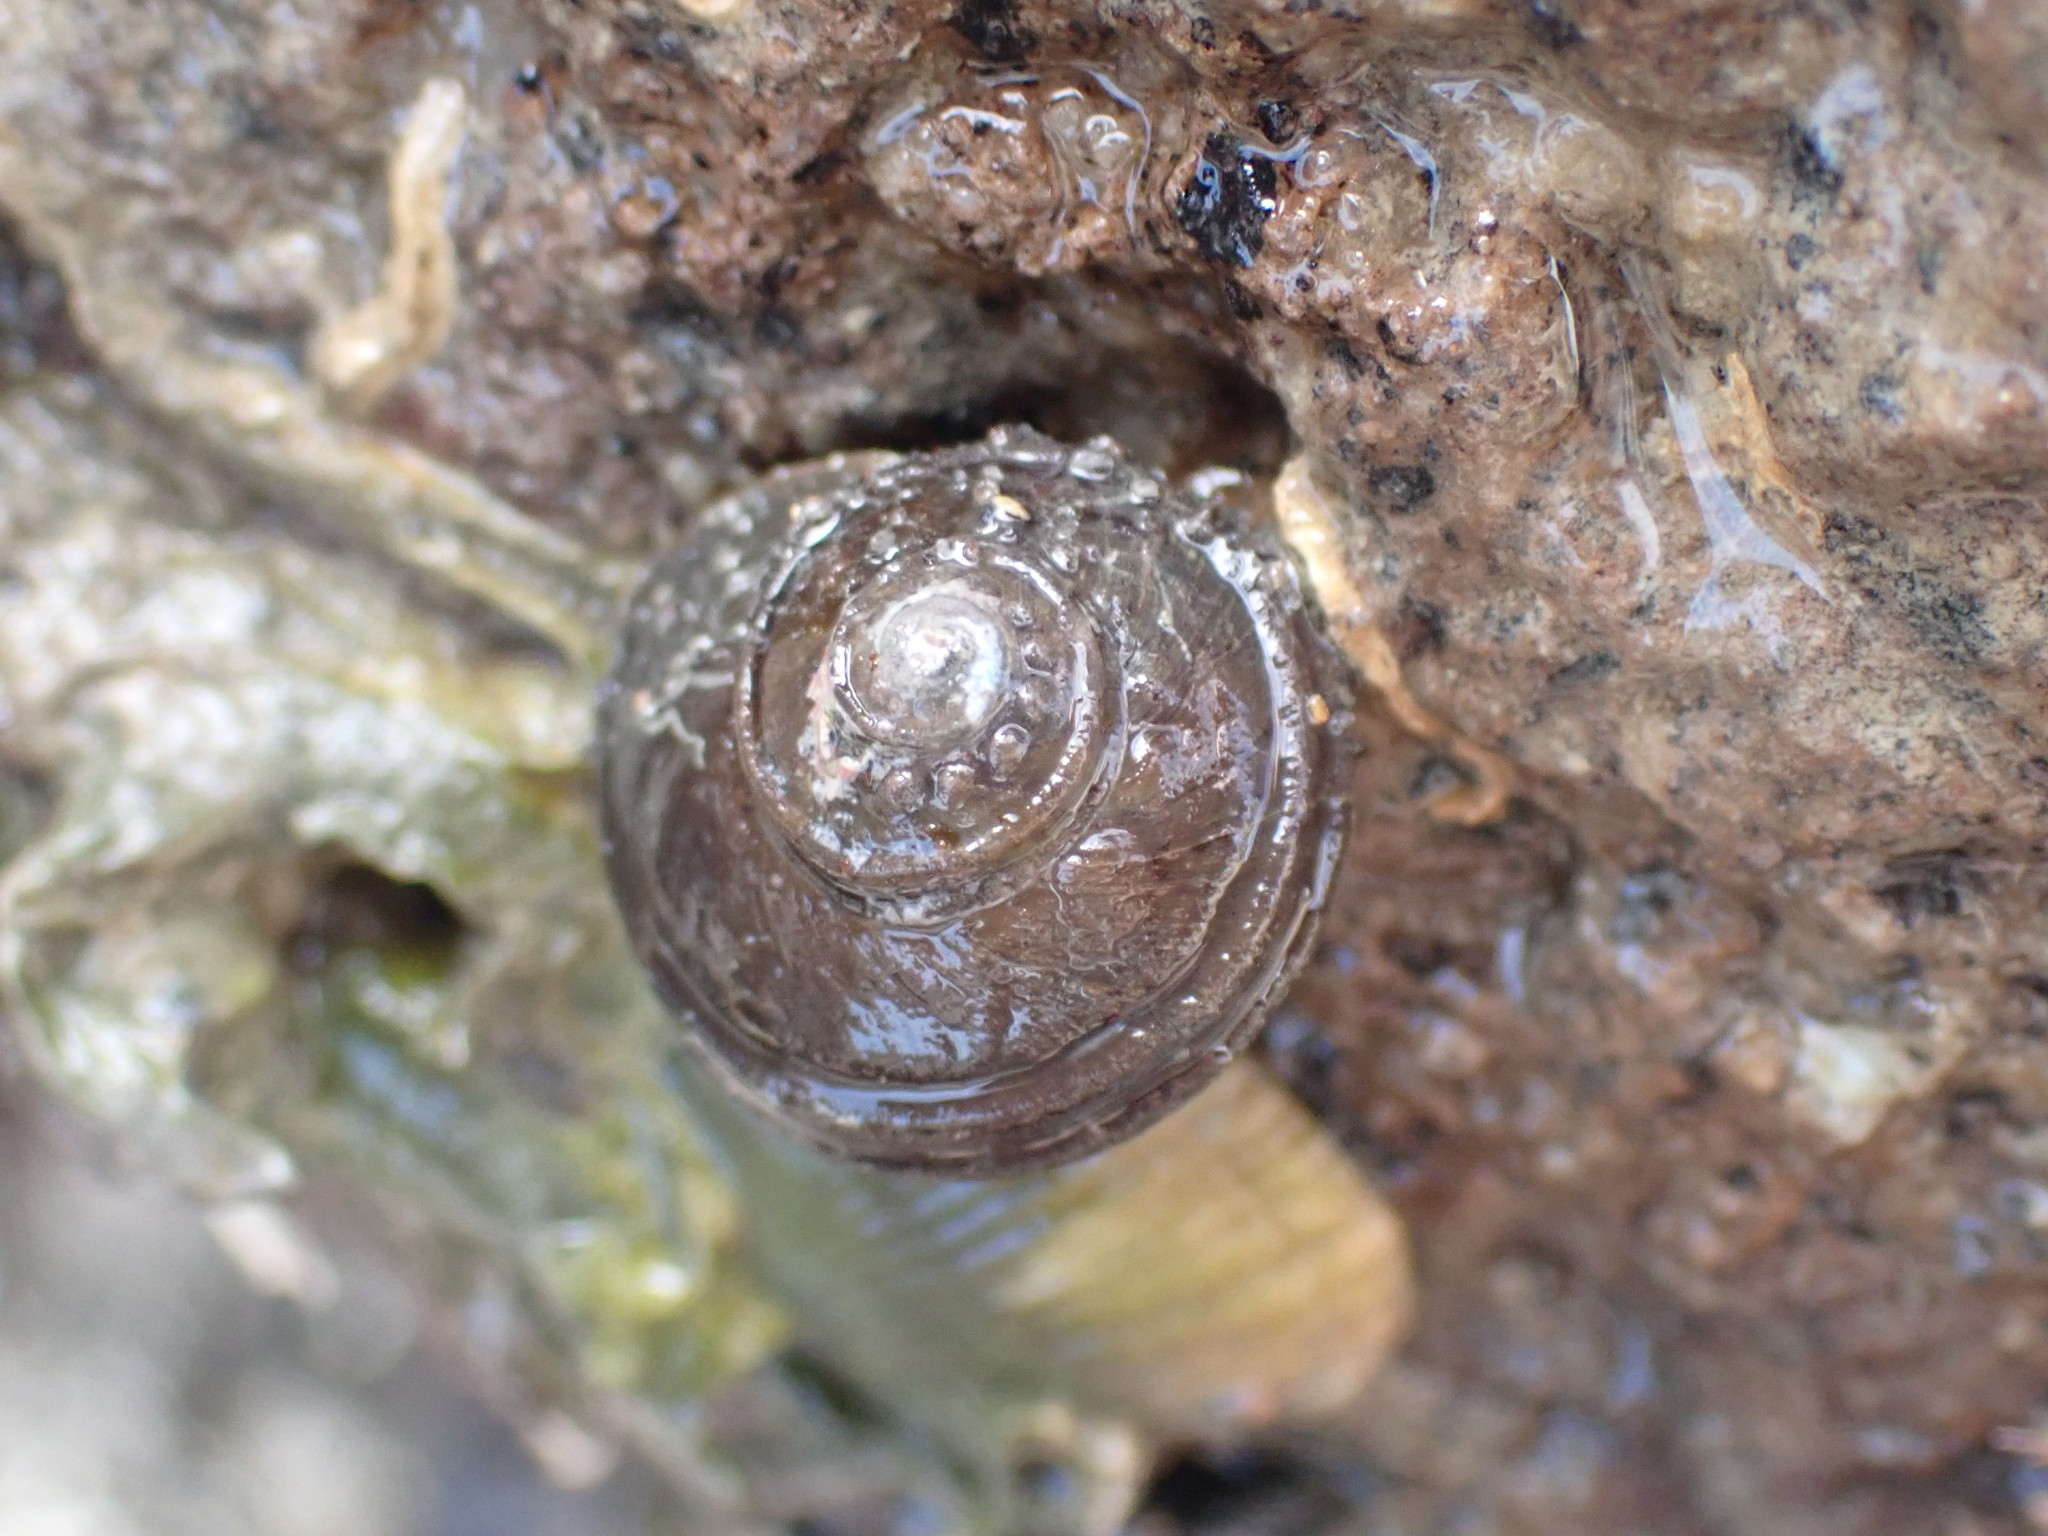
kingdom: Animalia
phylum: Mollusca
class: Gastropoda
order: Trochida
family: Turbinidae
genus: Lunella
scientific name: Lunella smaragda
